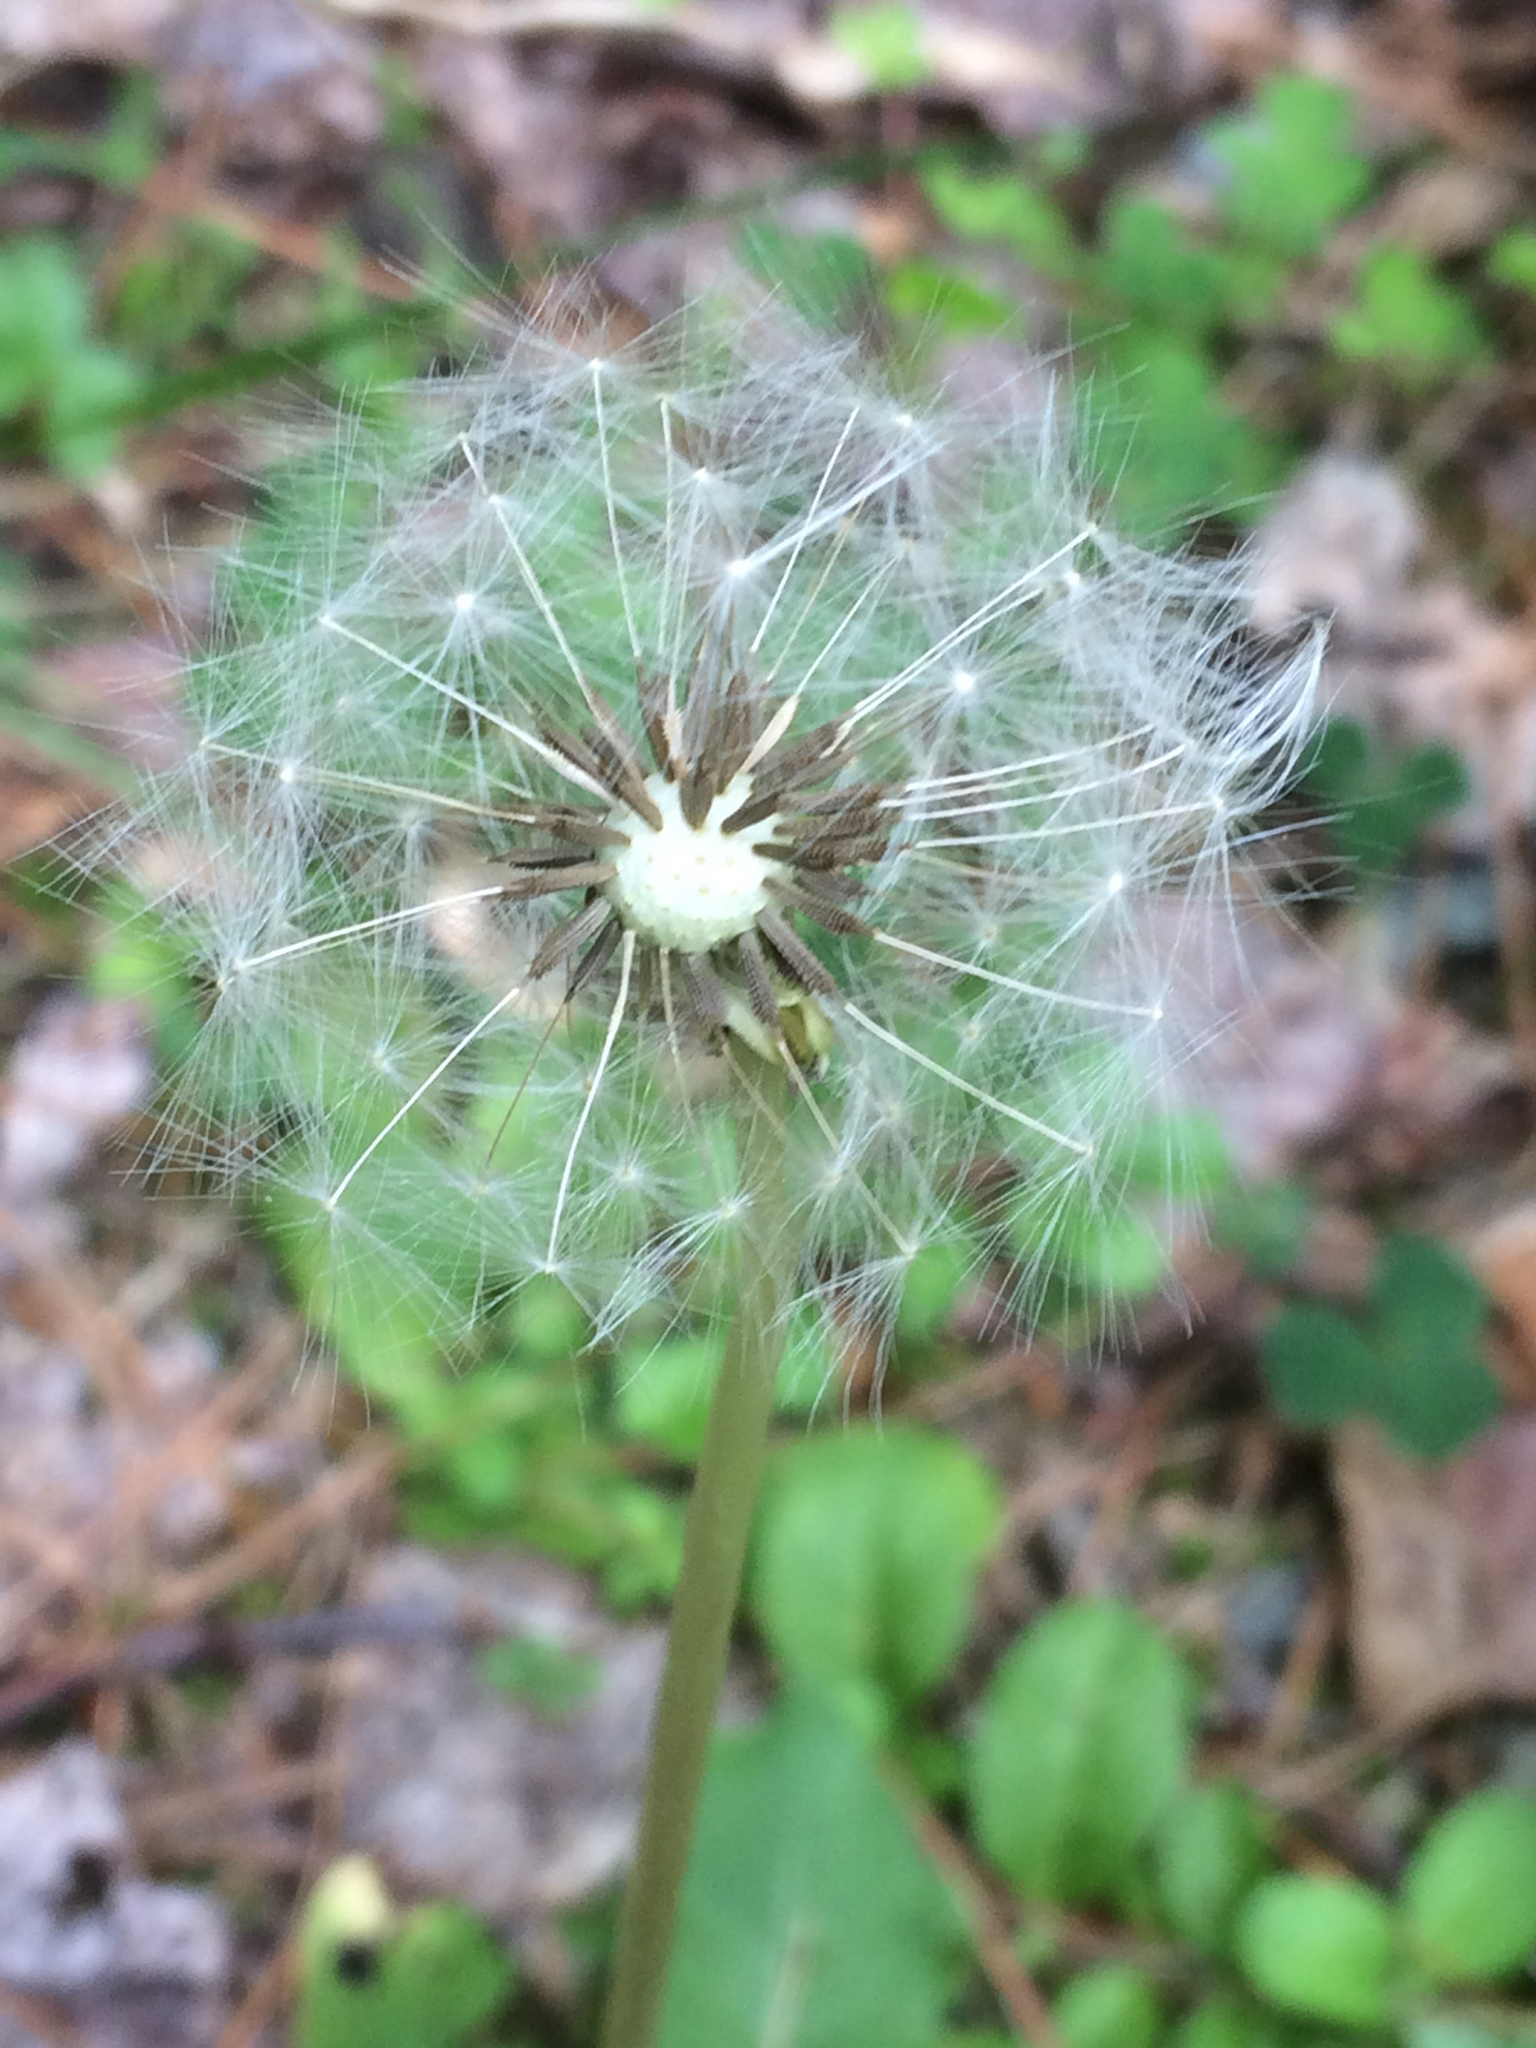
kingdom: Plantae
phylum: Tracheophyta
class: Magnoliopsida
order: Asterales
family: Asteraceae
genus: Taraxacum
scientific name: Taraxacum officinale
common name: Common dandelion
